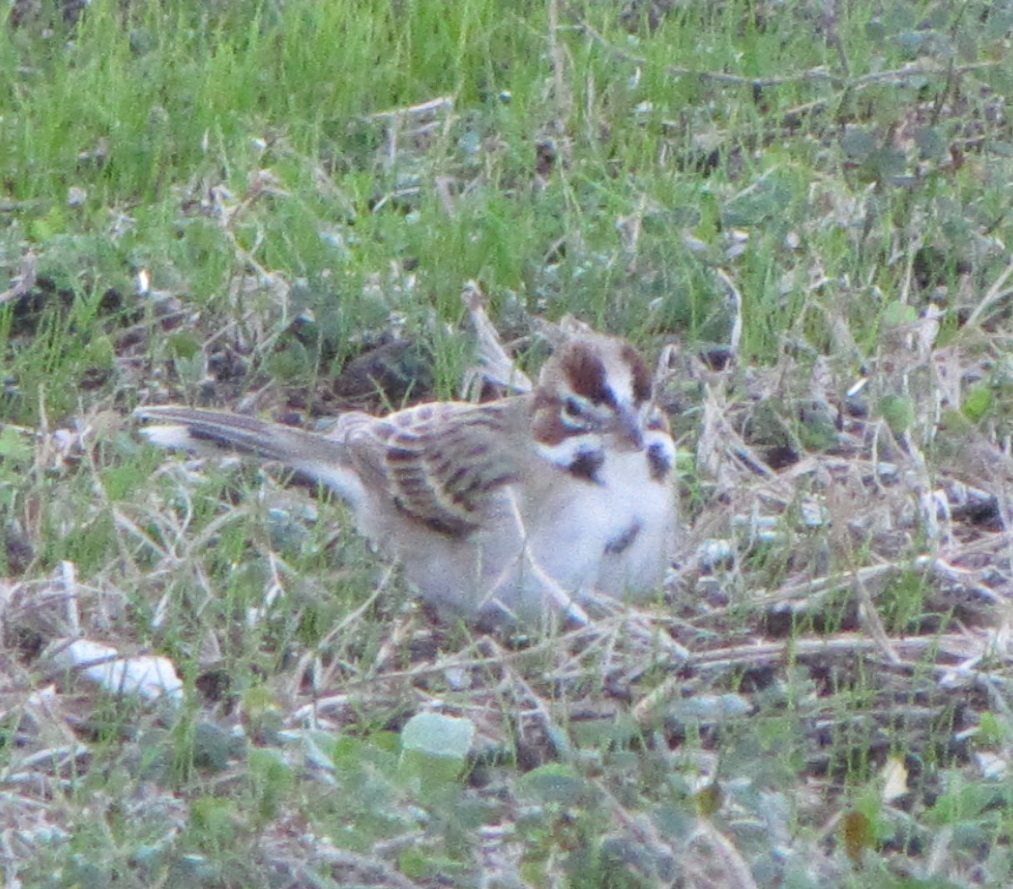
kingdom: Animalia
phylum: Chordata
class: Aves
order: Passeriformes
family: Passerellidae
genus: Chondestes
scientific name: Chondestes grammacus
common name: Lark sparrow
